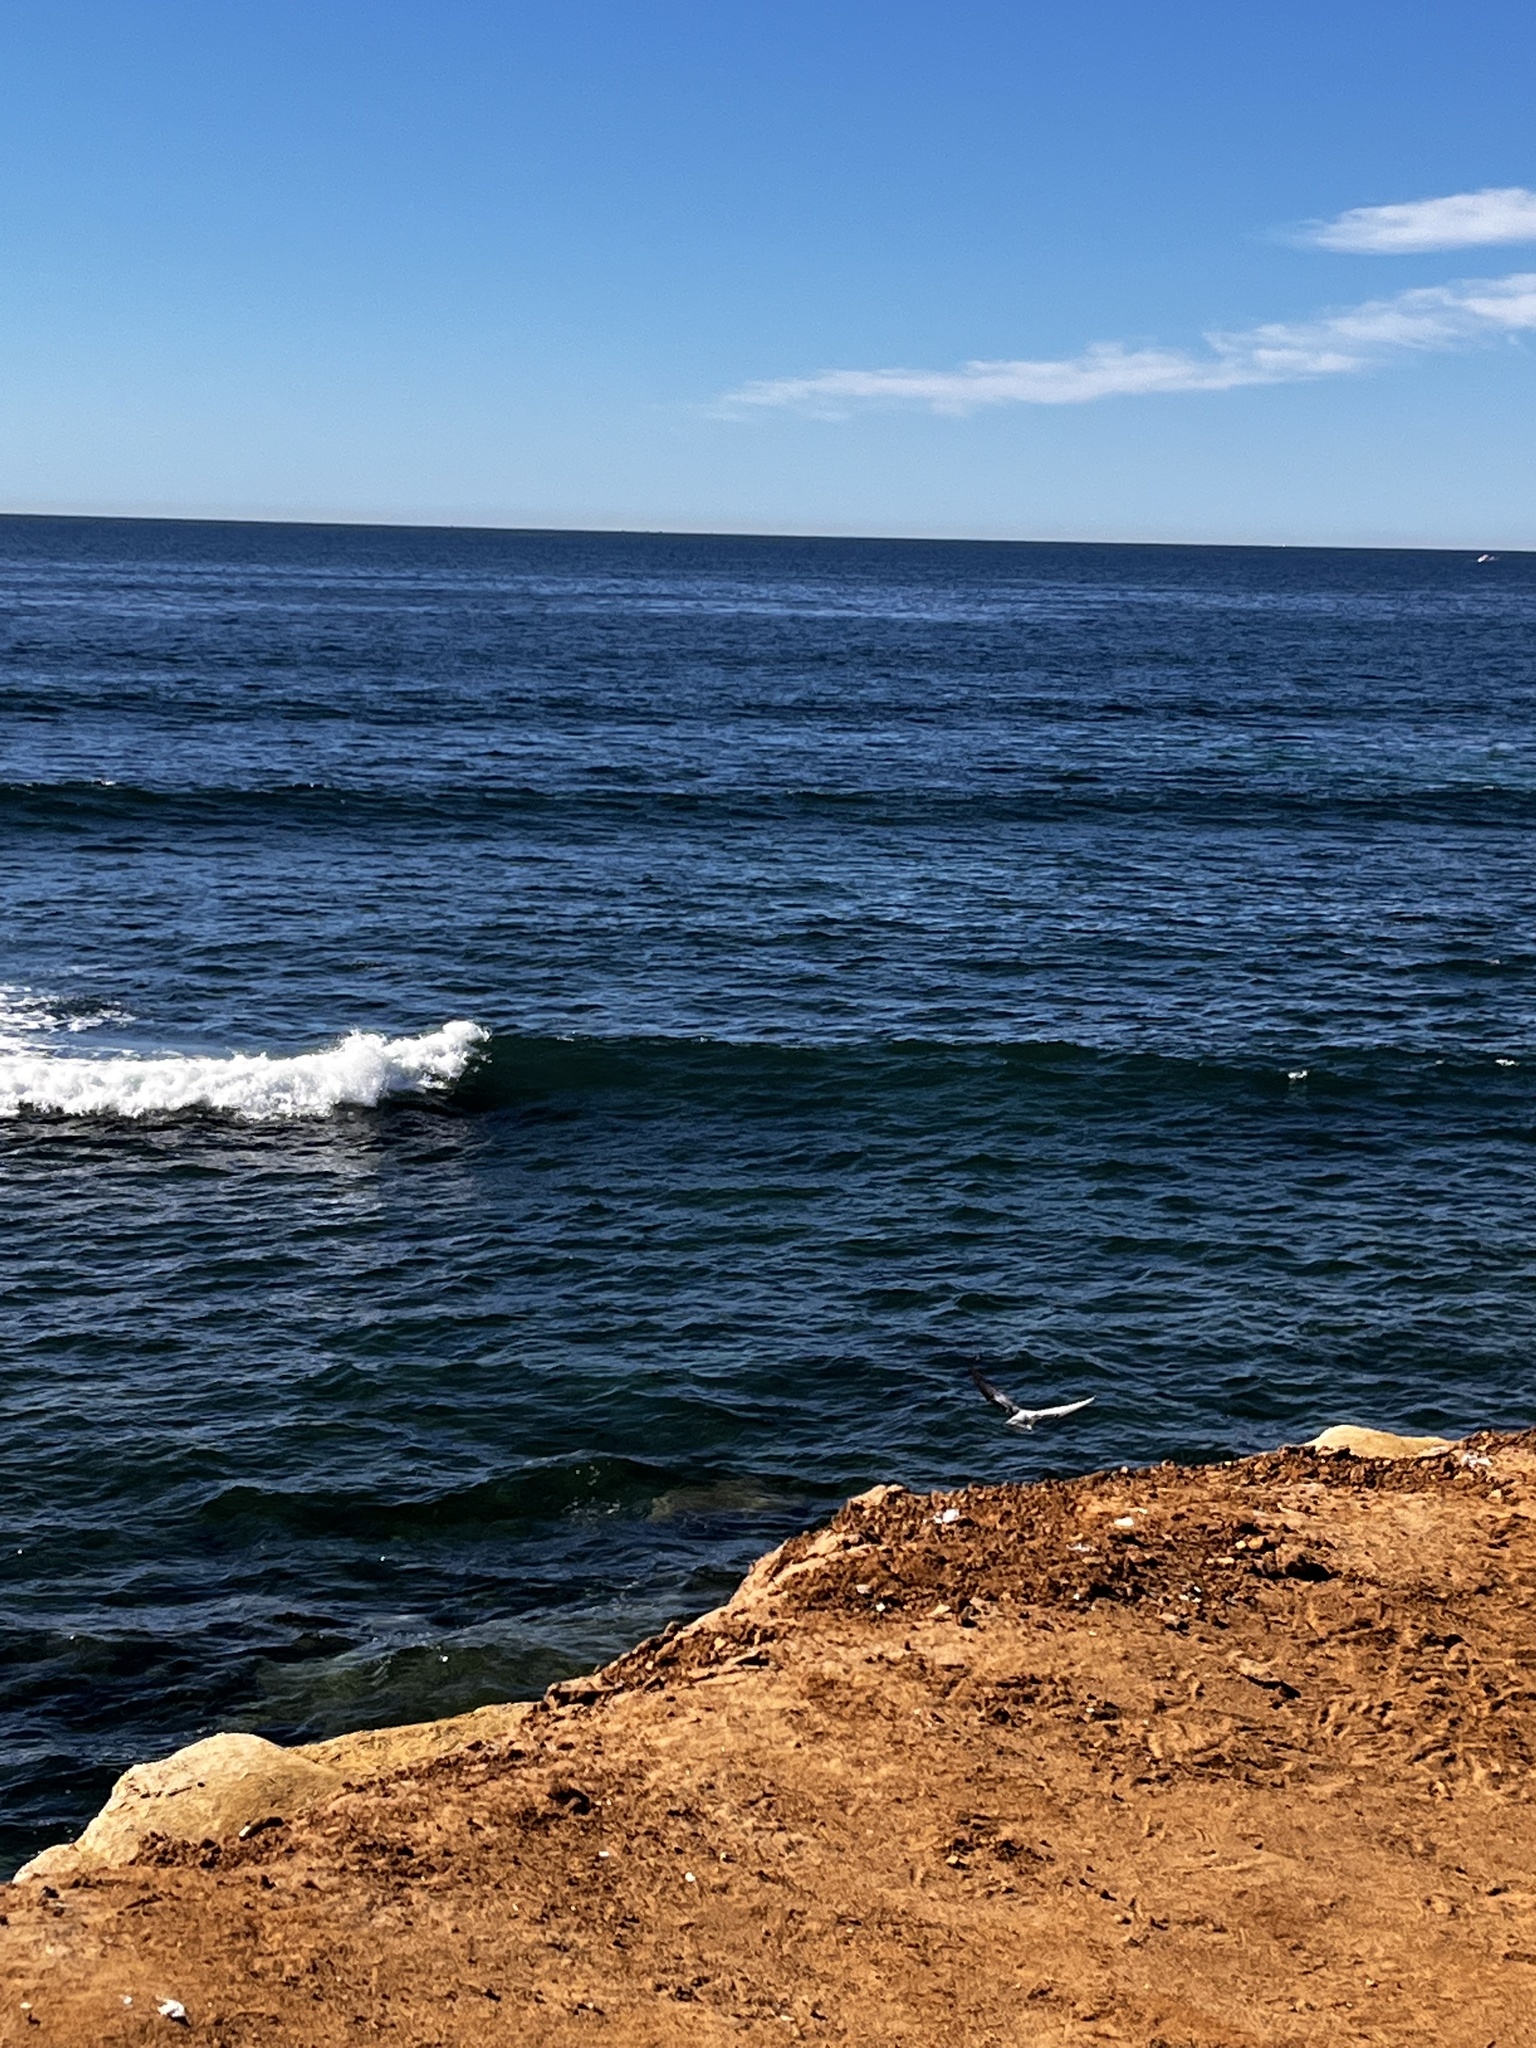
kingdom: Animalia
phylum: Chordata
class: Aves
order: Columbiformes
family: Columbidae
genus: Columba
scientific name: Columba livia
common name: Rock pigeon
